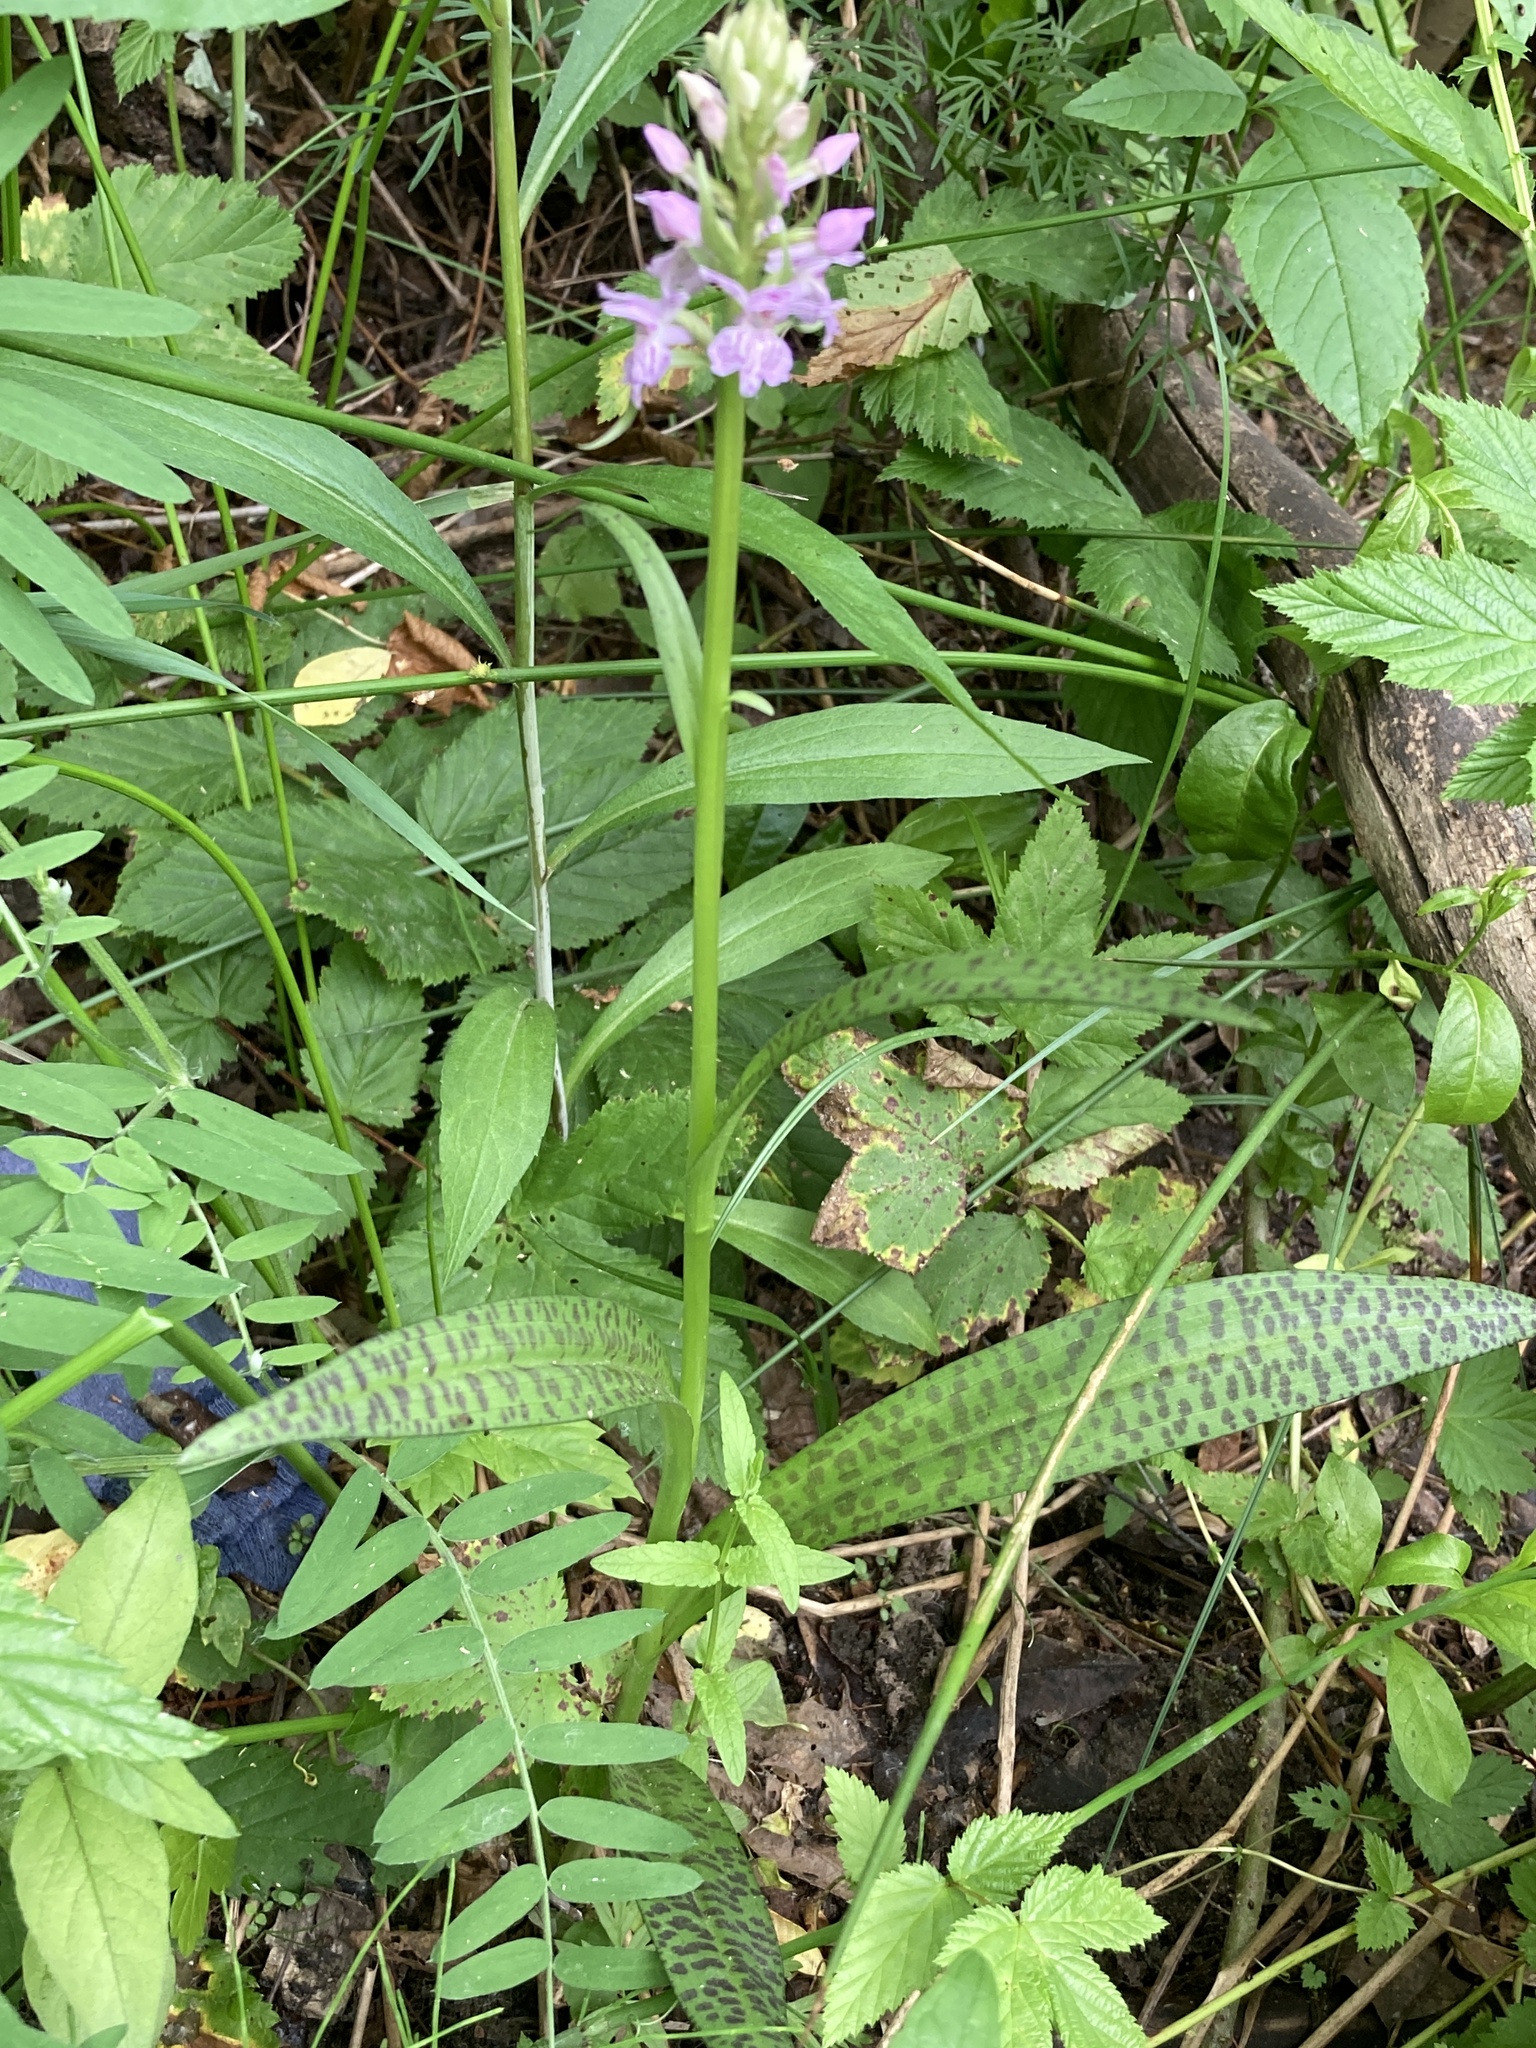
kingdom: Plantae
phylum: Tracheophyta
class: Liliopsida
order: Asparagales
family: Orchidaceae
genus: Dactylorhiza
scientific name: Dactylorhiza majalis
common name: Marsh orchid
